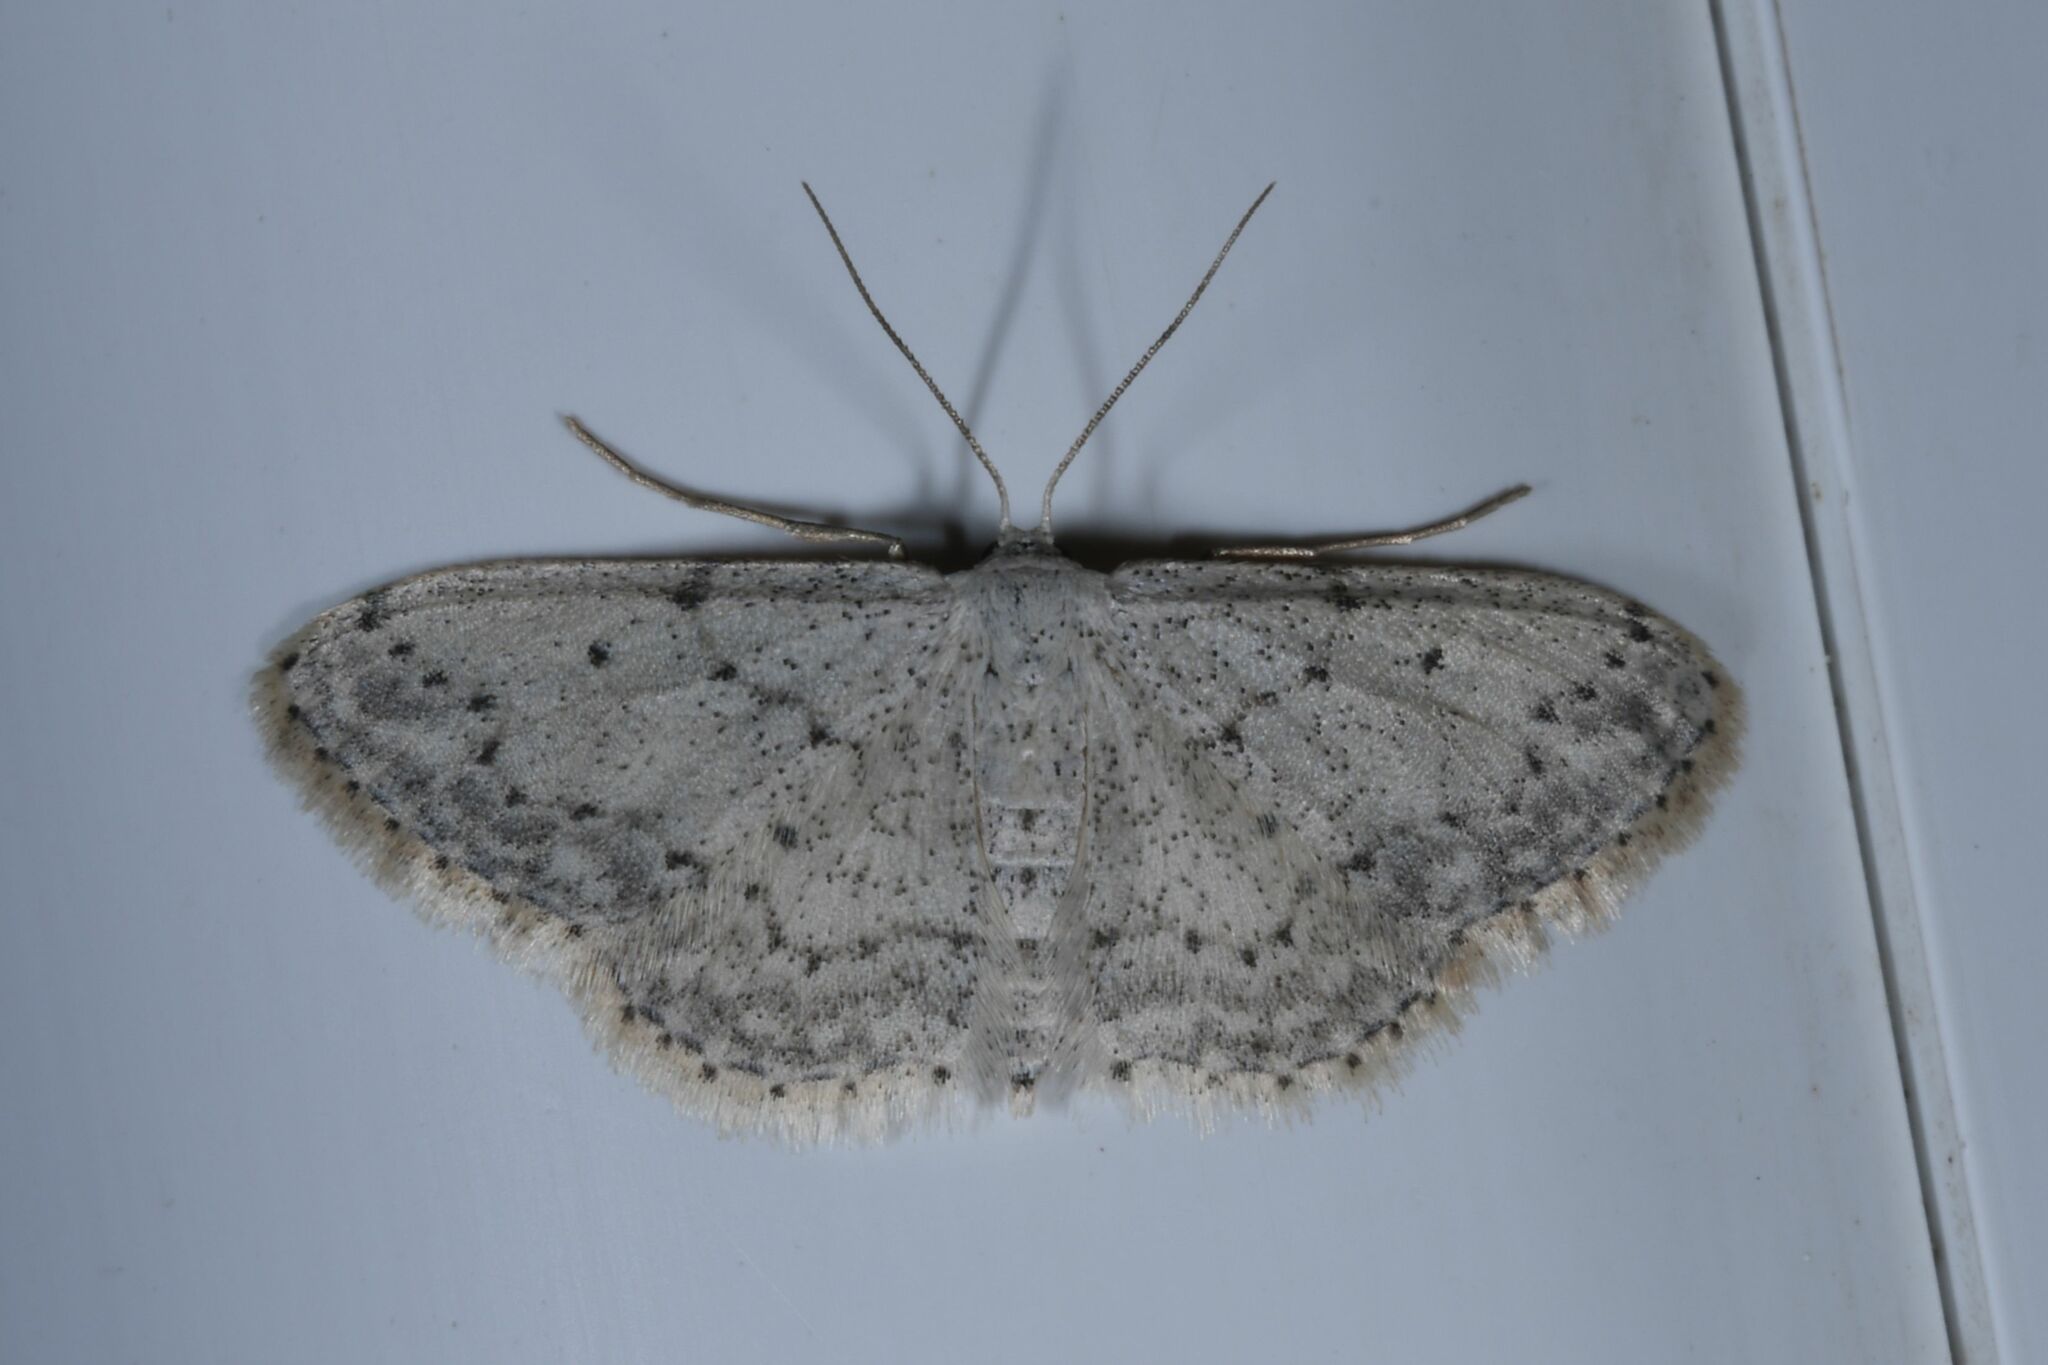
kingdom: Animalia
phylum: Arthropoda
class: Insecta
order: Lepidoptera
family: Geometridae
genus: Idaea
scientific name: Idaea seriata
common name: Small dusty wave
